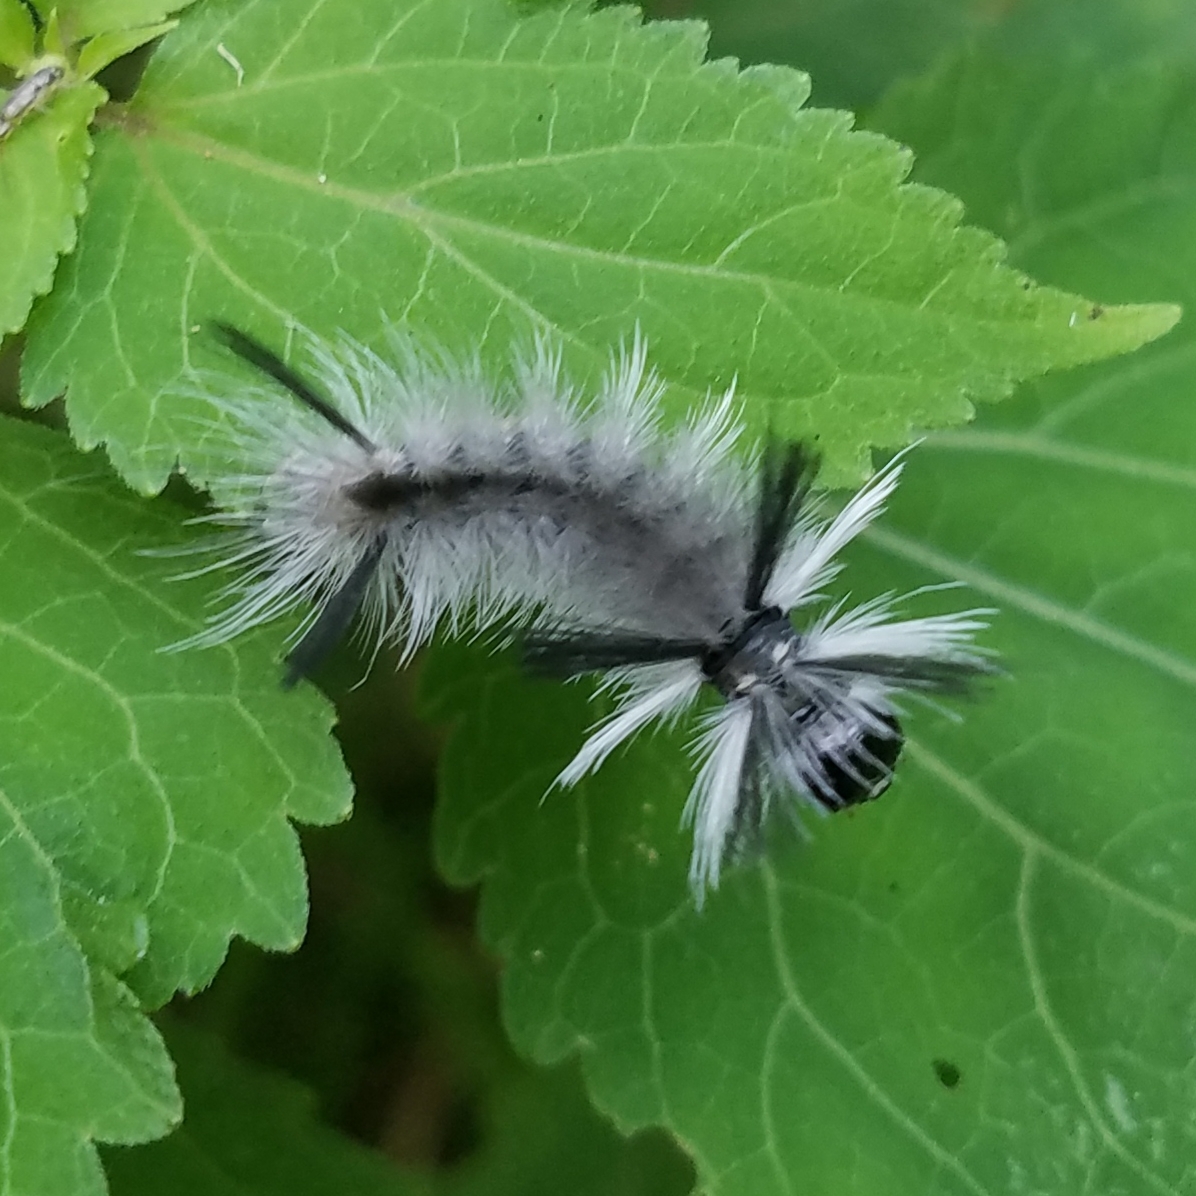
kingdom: Animalia
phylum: Arthropoda
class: Insecta
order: Lepidoptera
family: Erebidae
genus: Halysidota
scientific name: Halysidota tessellaris
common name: Banded tussock moth
